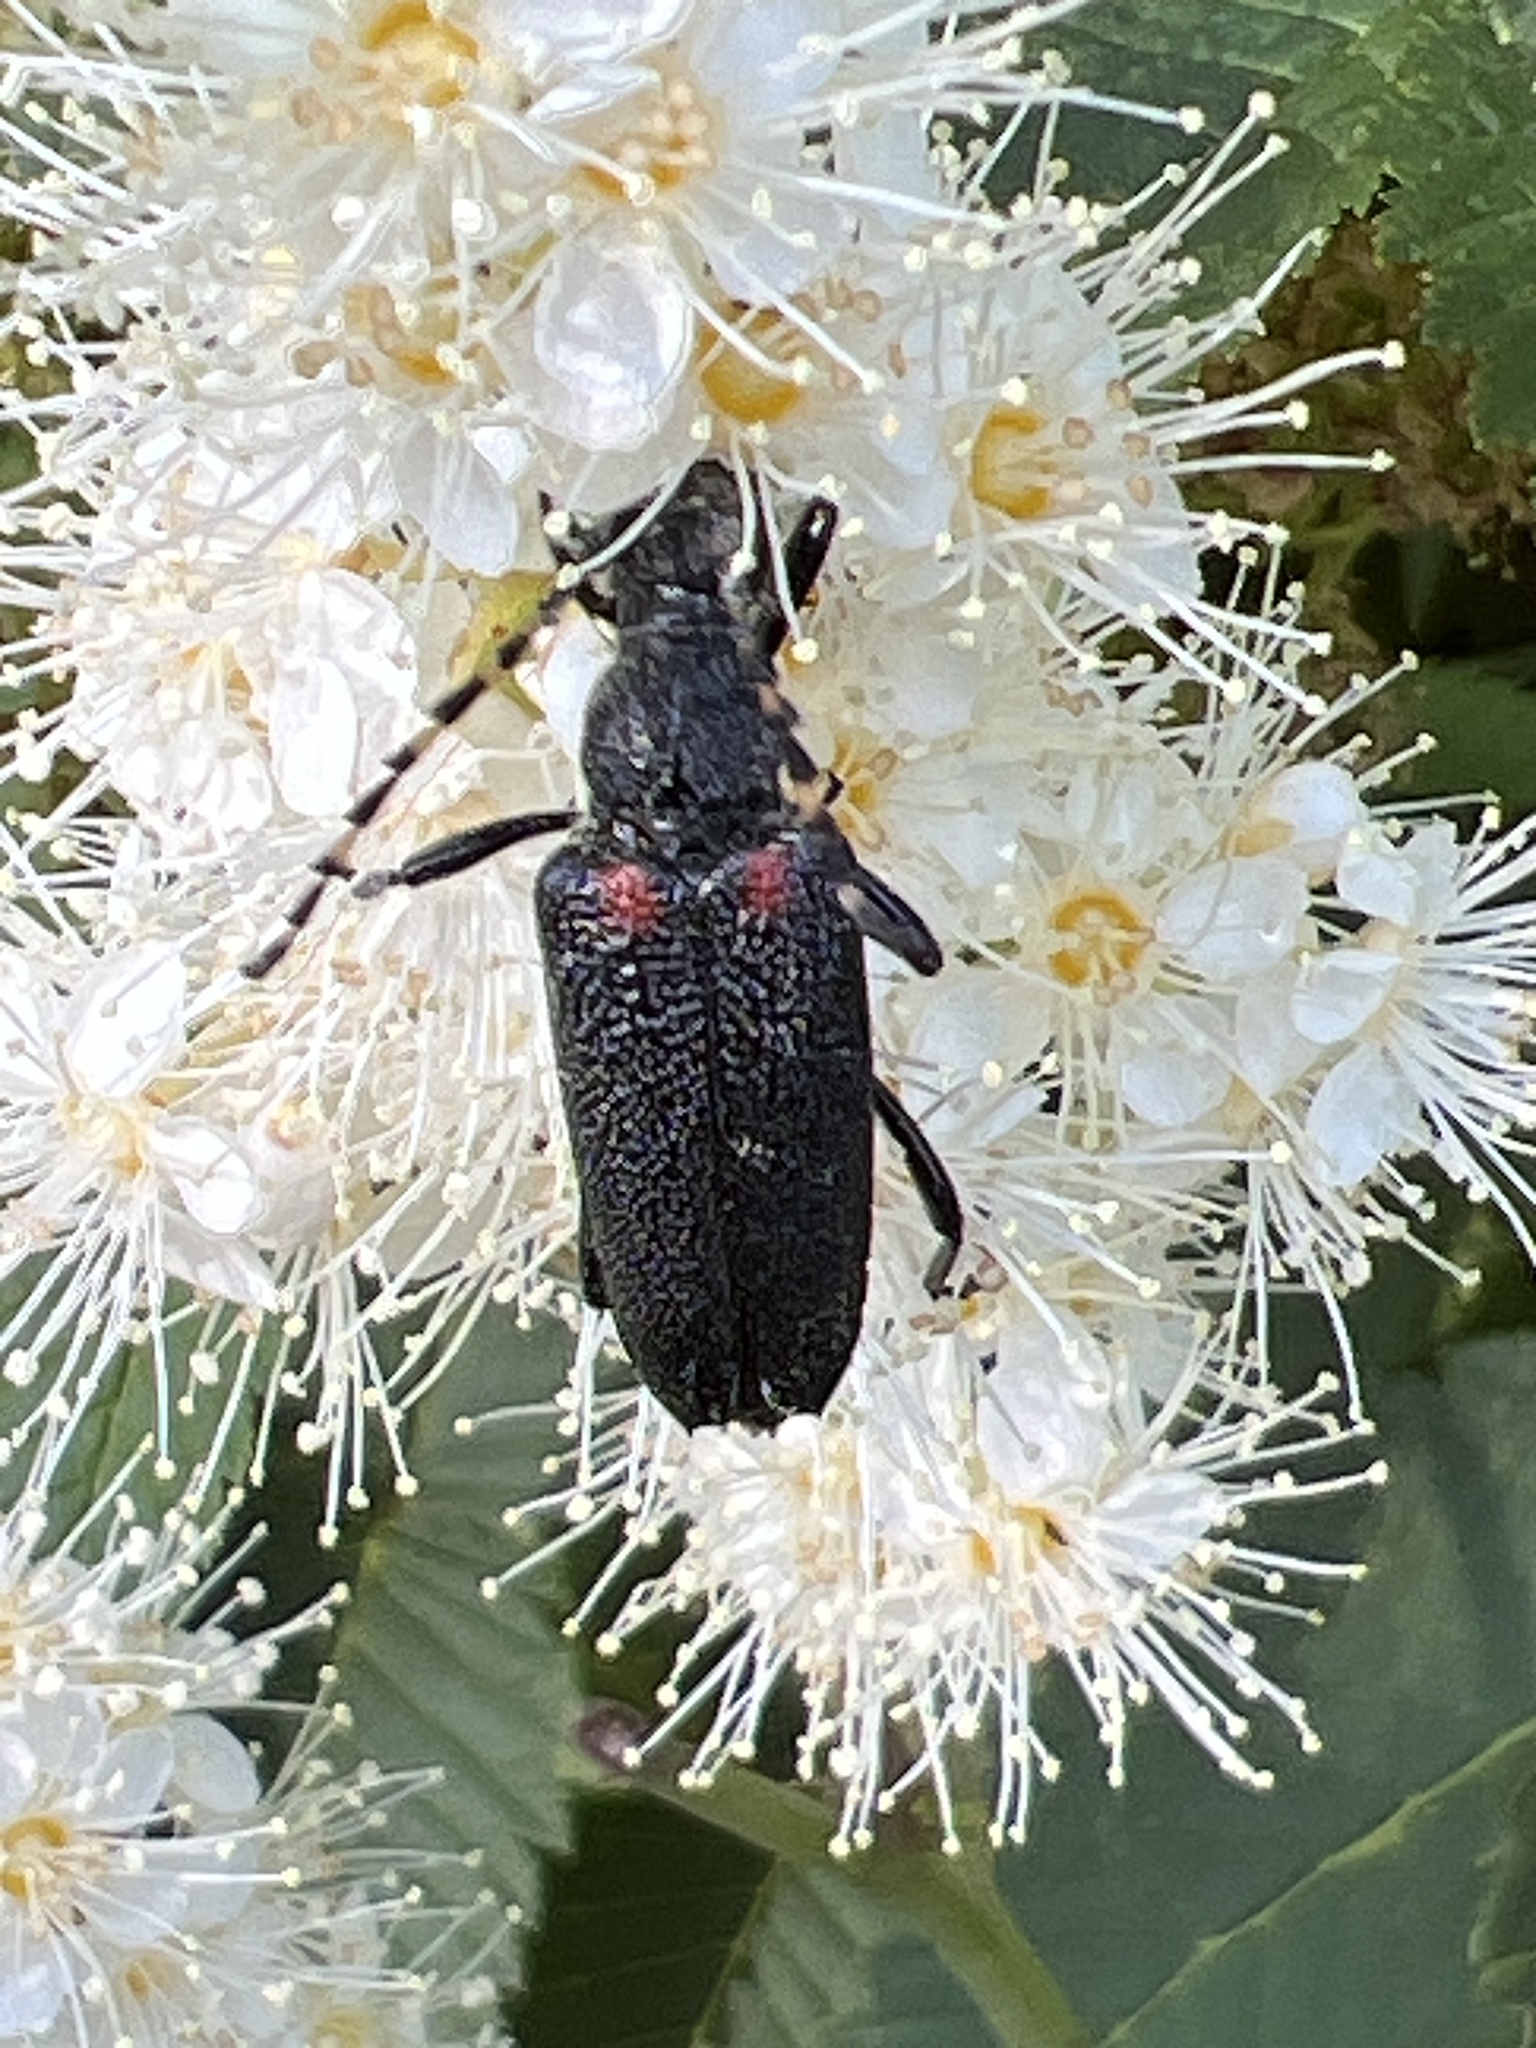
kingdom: Animalia
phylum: Arthropoda
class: Insecta
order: Coleoptera
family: Cerambycidae
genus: Stictoleptura
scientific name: Stictoleptura canadensis
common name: Red-shouldered pine borer
